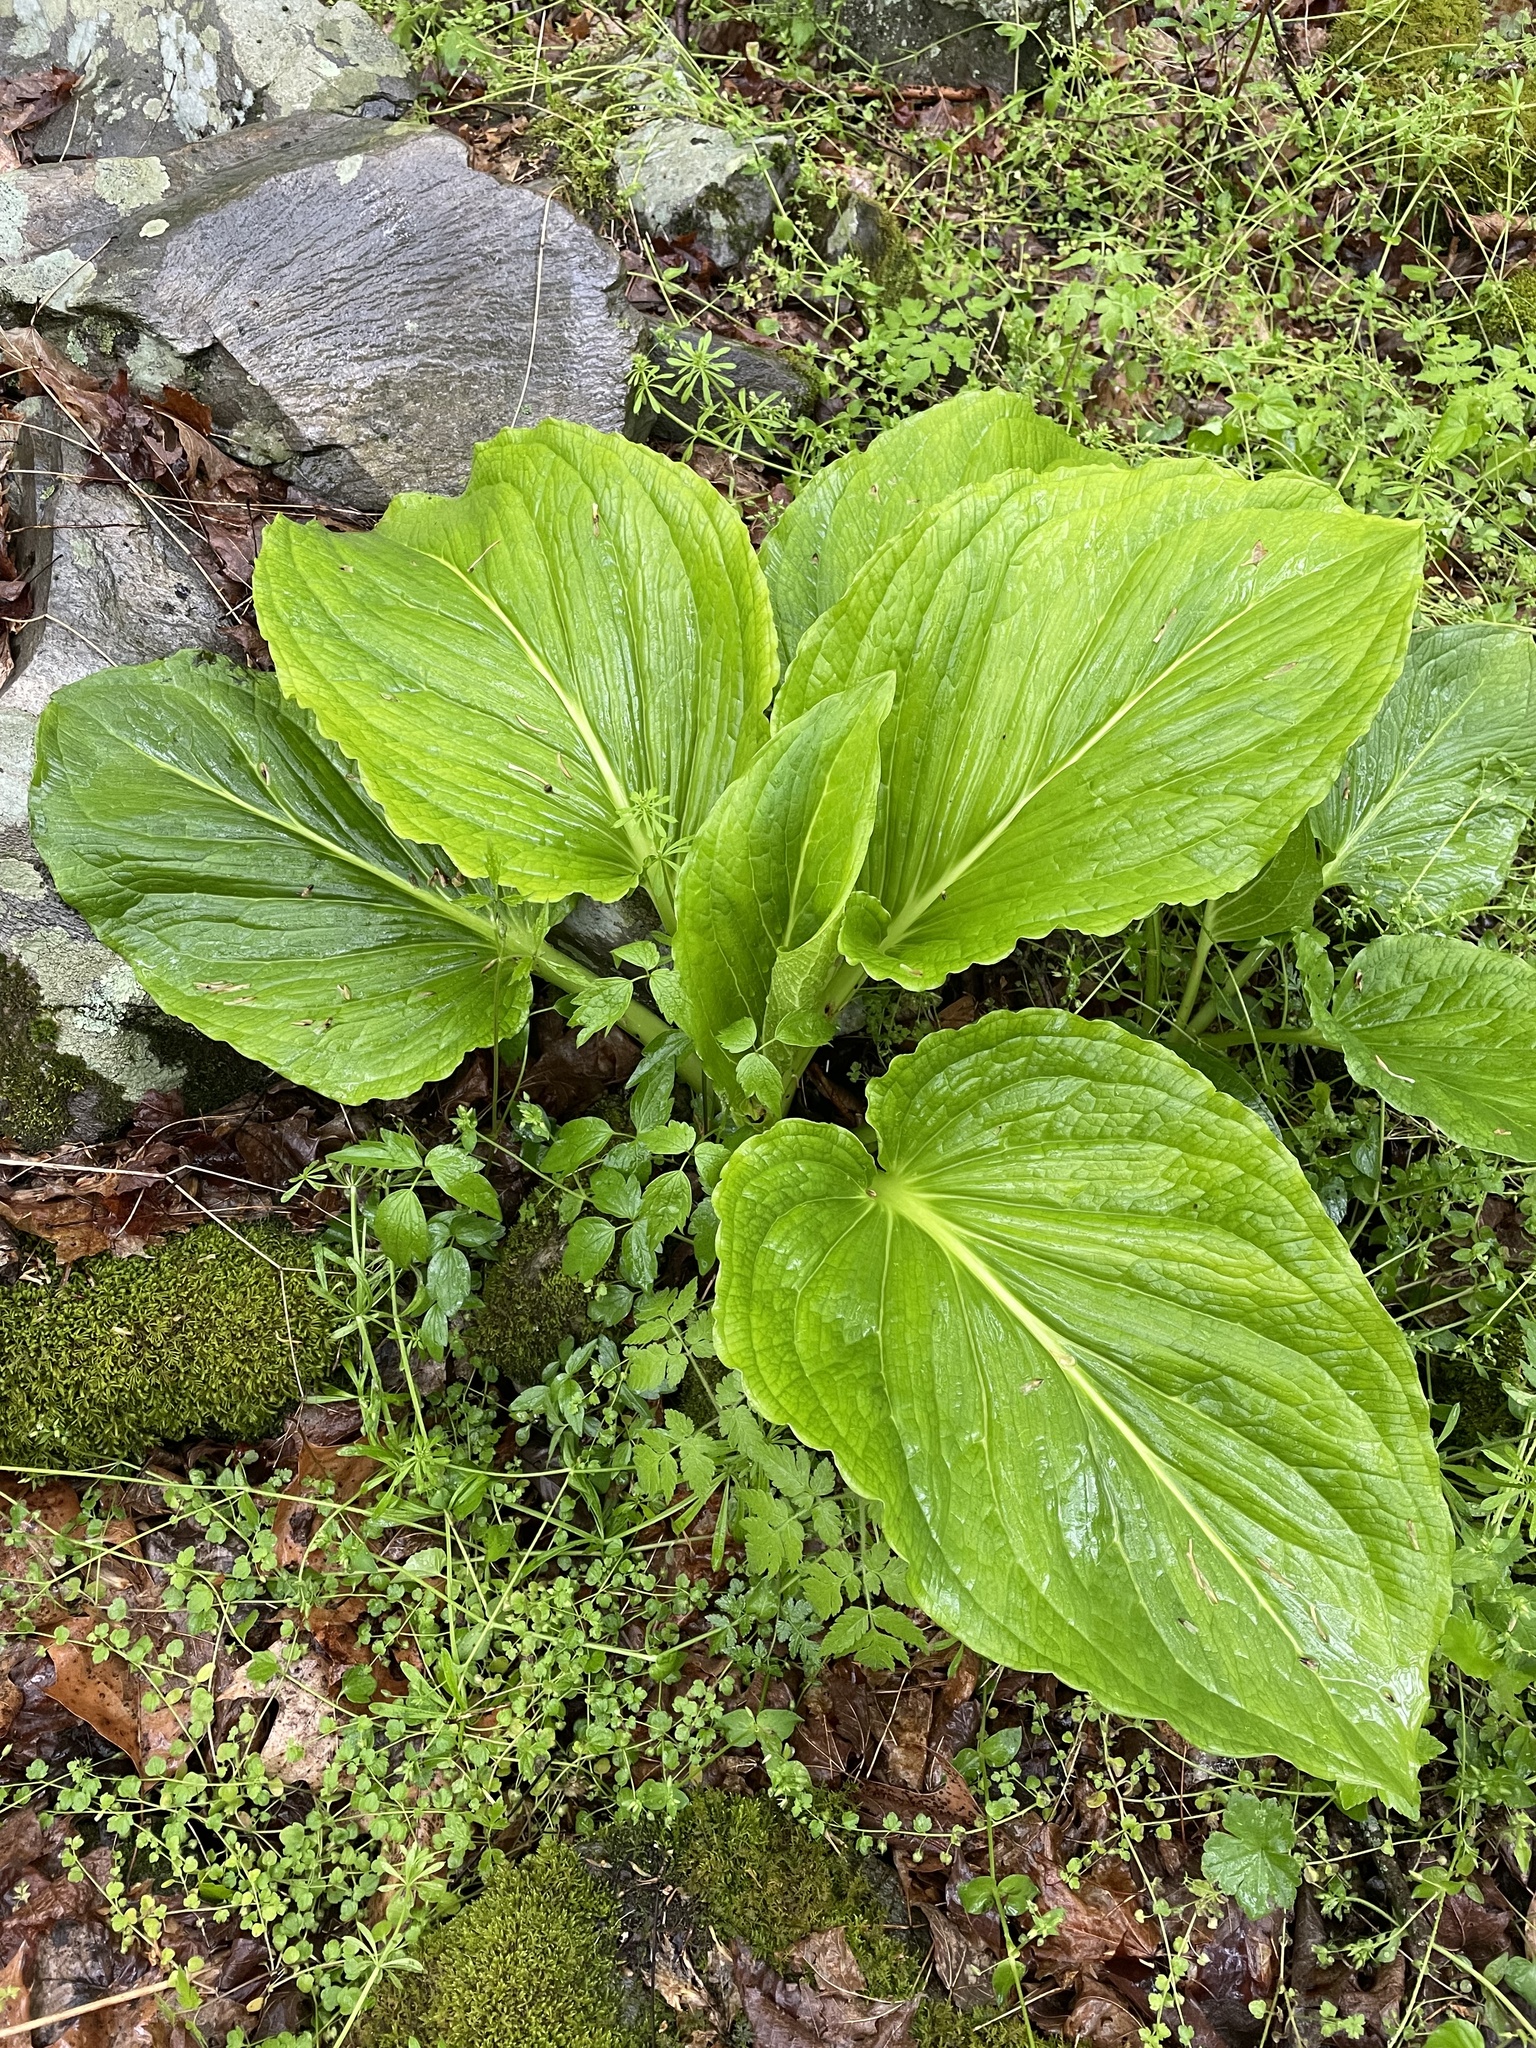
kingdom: Plantae
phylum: Tracheophyta
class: Liliopsida
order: Alismatales
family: Araceae
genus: Symplocarpus
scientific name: Symplocarpus foetidus
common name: Eastern skunk cabbage
